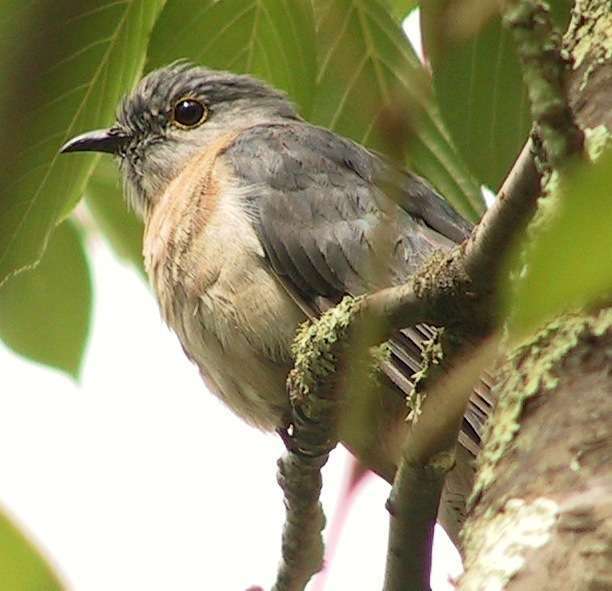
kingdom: Animalia
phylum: Chordata
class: Aves
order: Cuculiformes
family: Cuculidae
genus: Cacomantis
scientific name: Cacomantis flabelliformis
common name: Fan-tailed cuckoo
